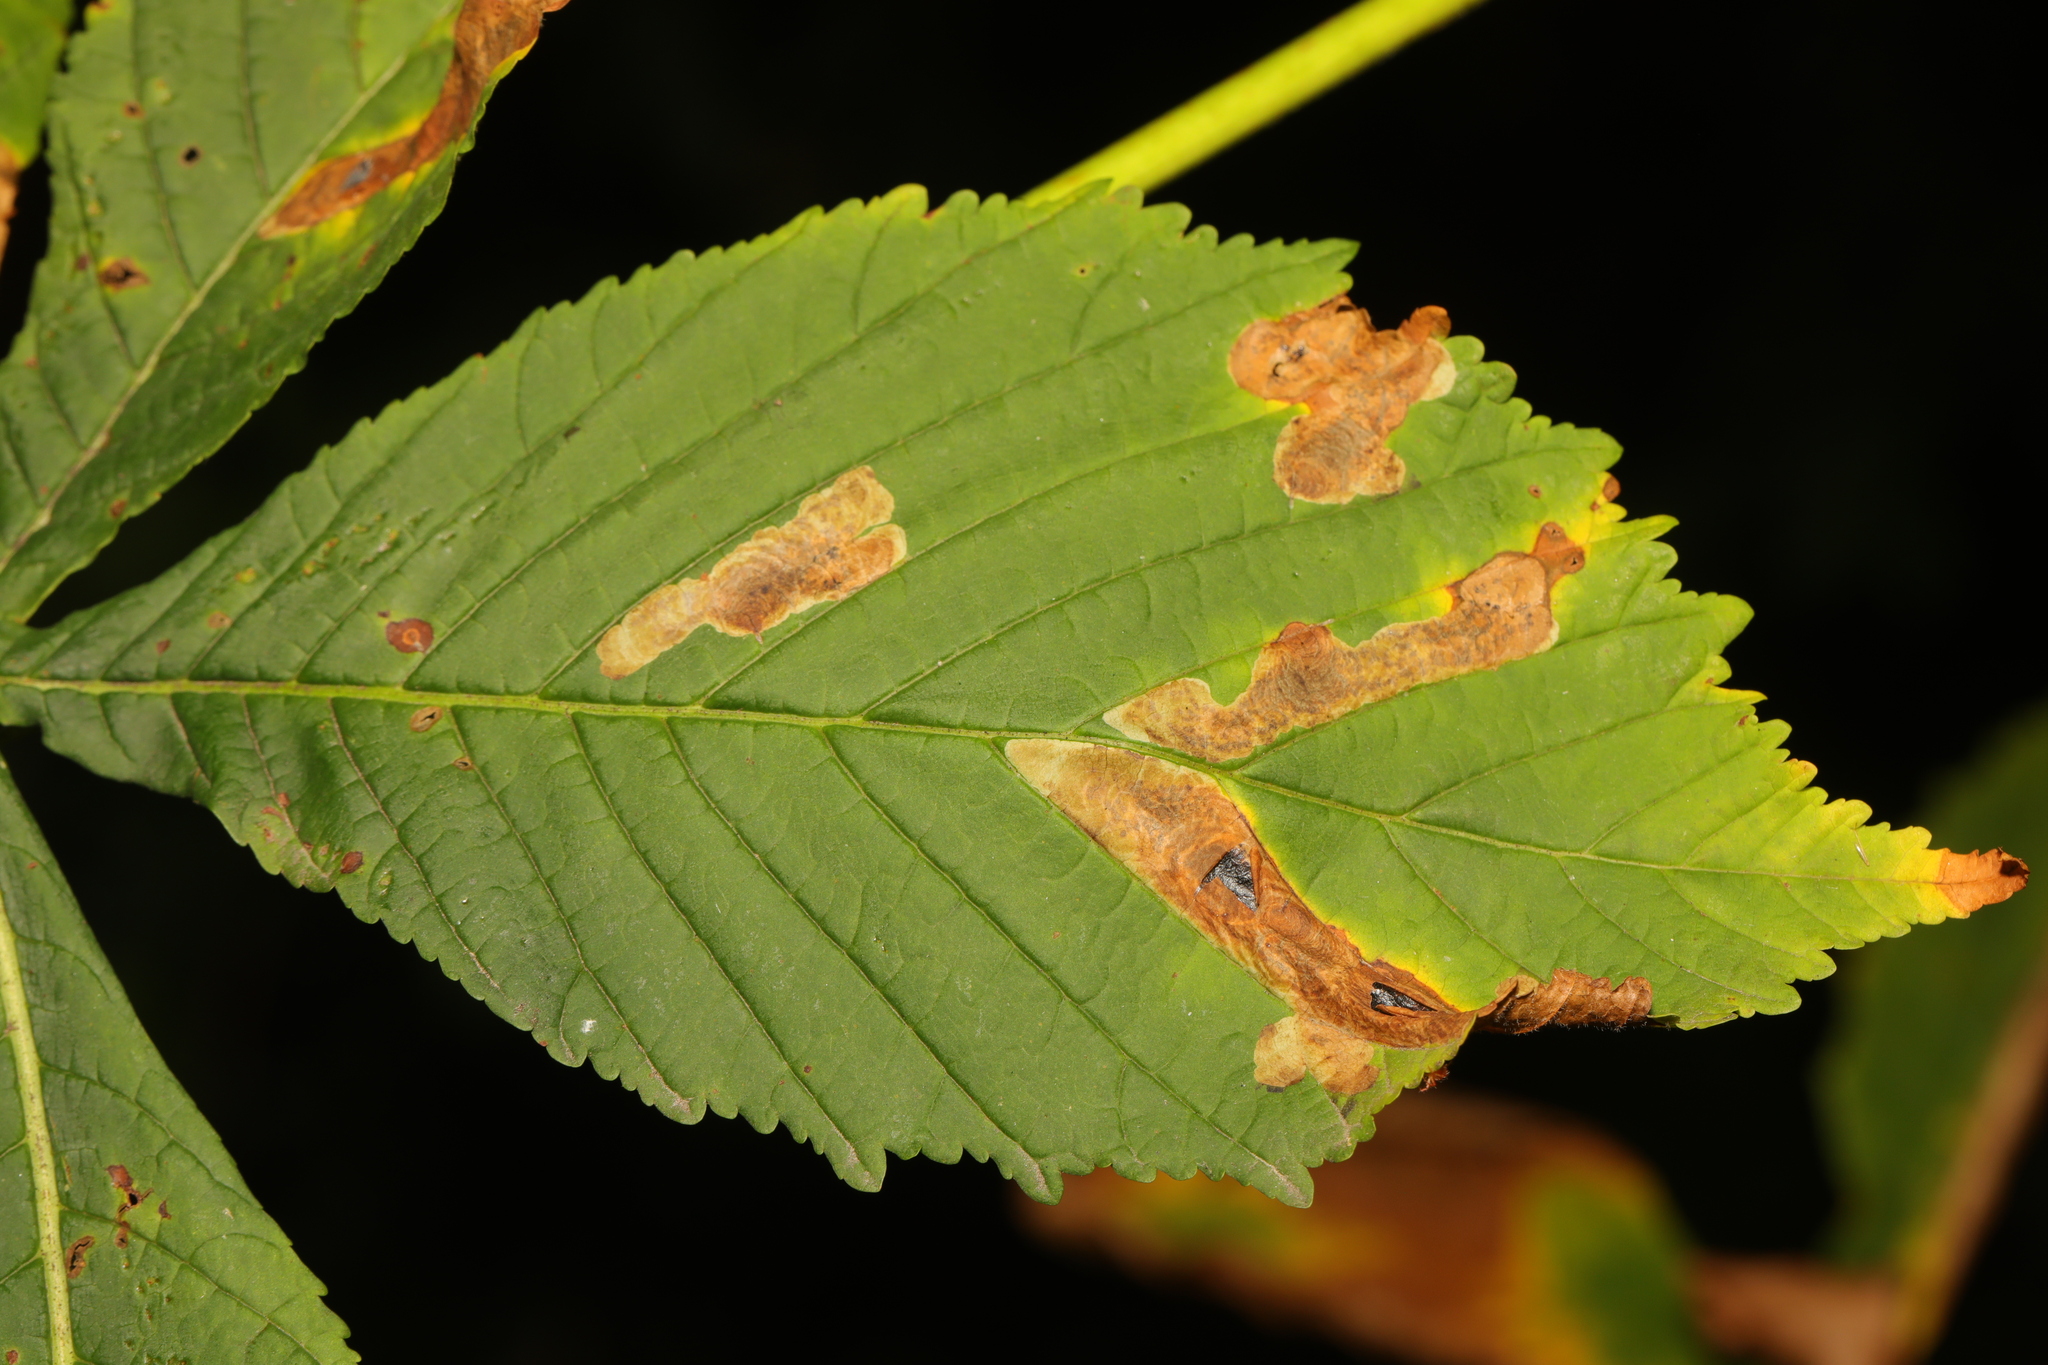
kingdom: Animalia
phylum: Arthropoda
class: Insecta
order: Lepidoptera
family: Gracillariidae
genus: Cameraria
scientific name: Cameraria ohridella
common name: Horse-chestnut leaf-miner
